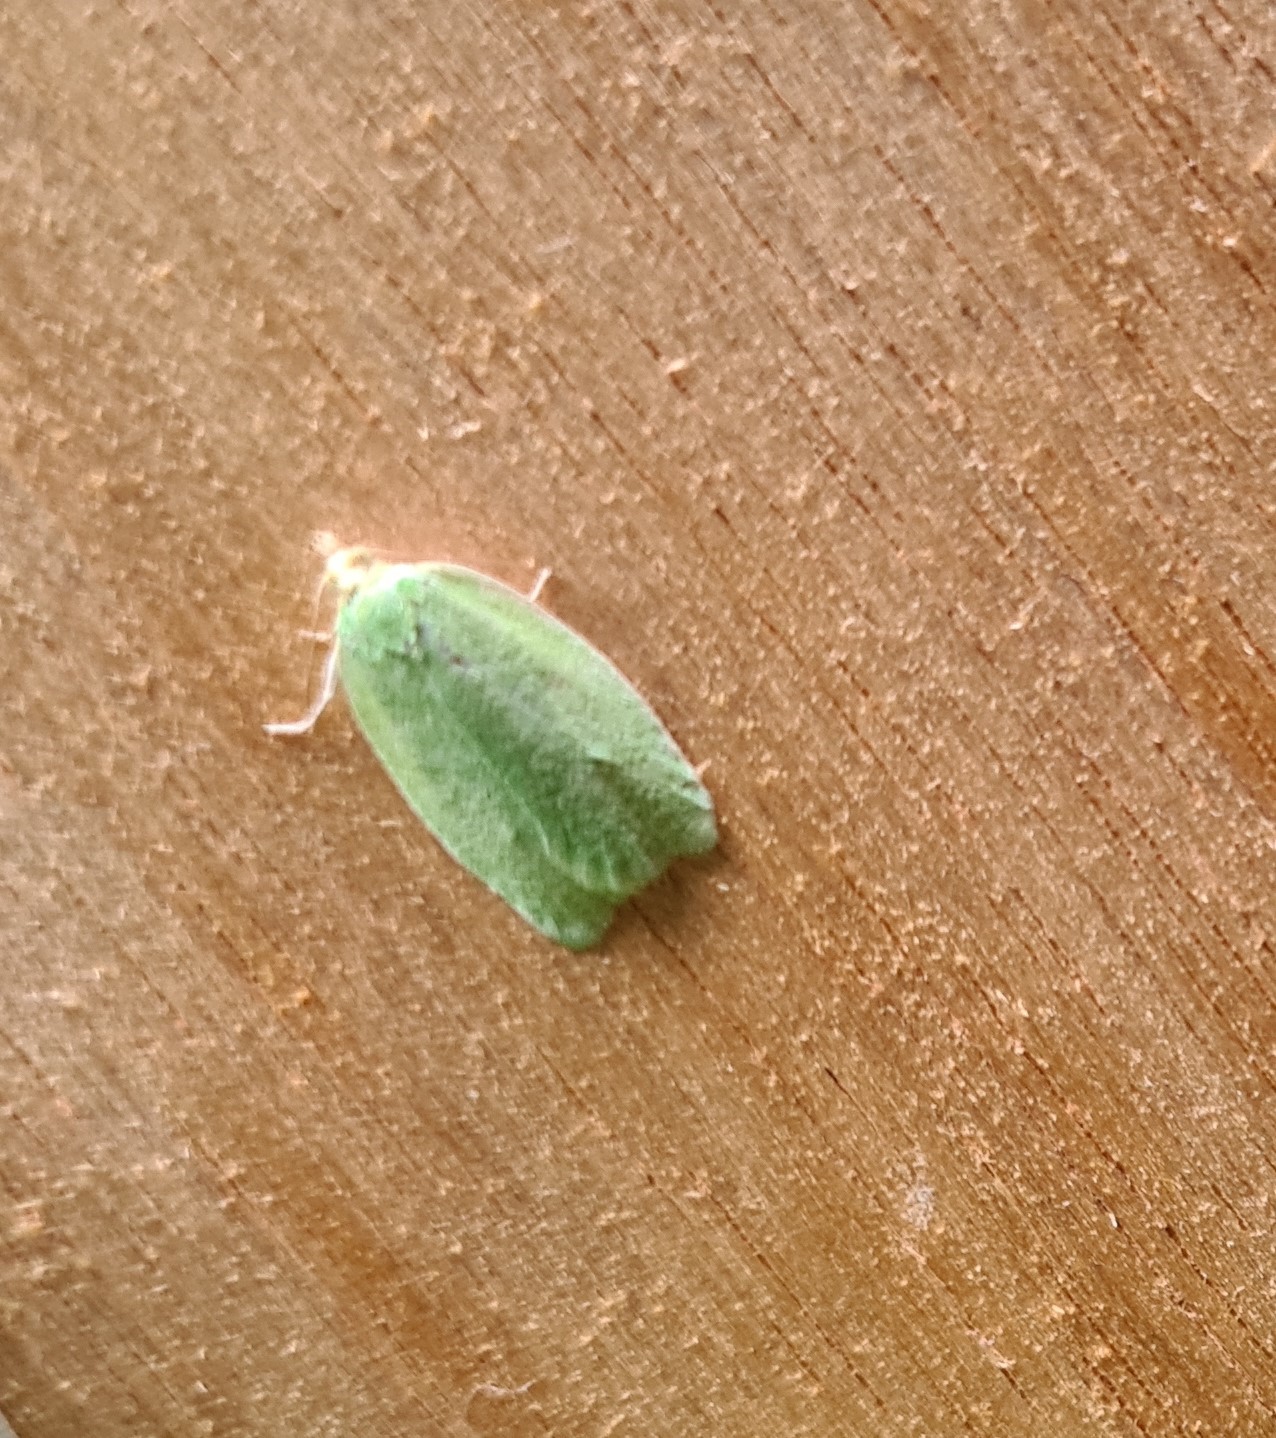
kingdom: Animalia
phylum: Arthropoda
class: Insecta
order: Lepidoptera
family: Tortricidae
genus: Tortrix
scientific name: Tortrix viridana
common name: Green oak tortrix
